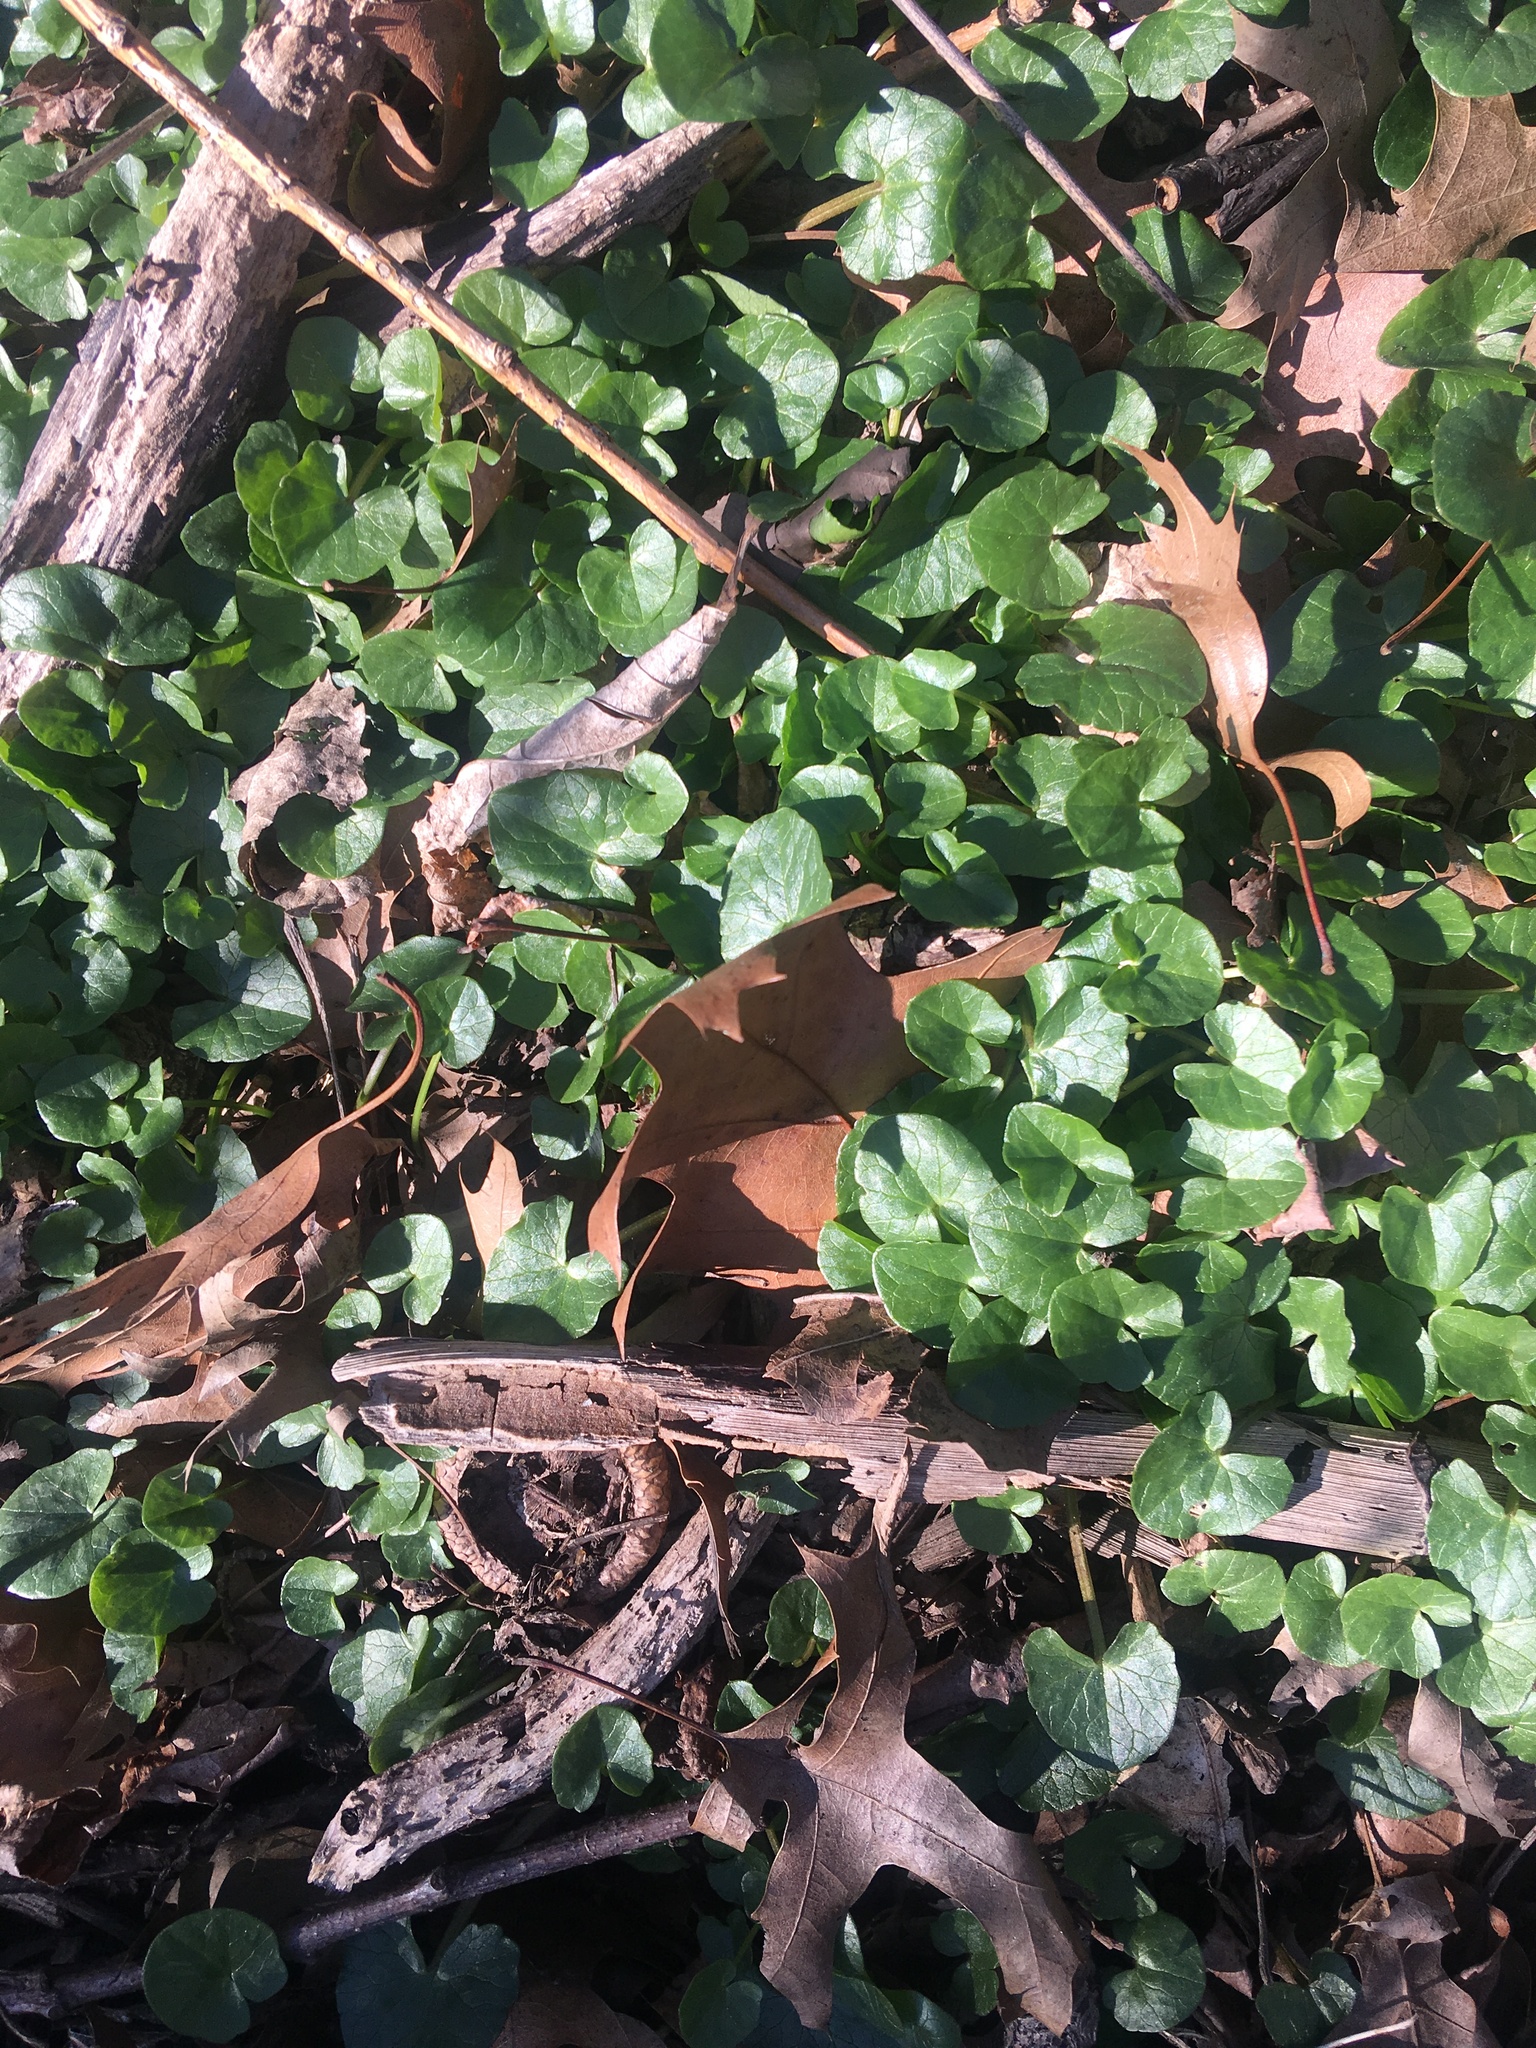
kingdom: Plantae
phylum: Tracheophyta
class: Magnoliopsida
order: Ranunculales
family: Ranunculaceae
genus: Ficaria
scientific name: Ficaria verna
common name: Lesser celandine
